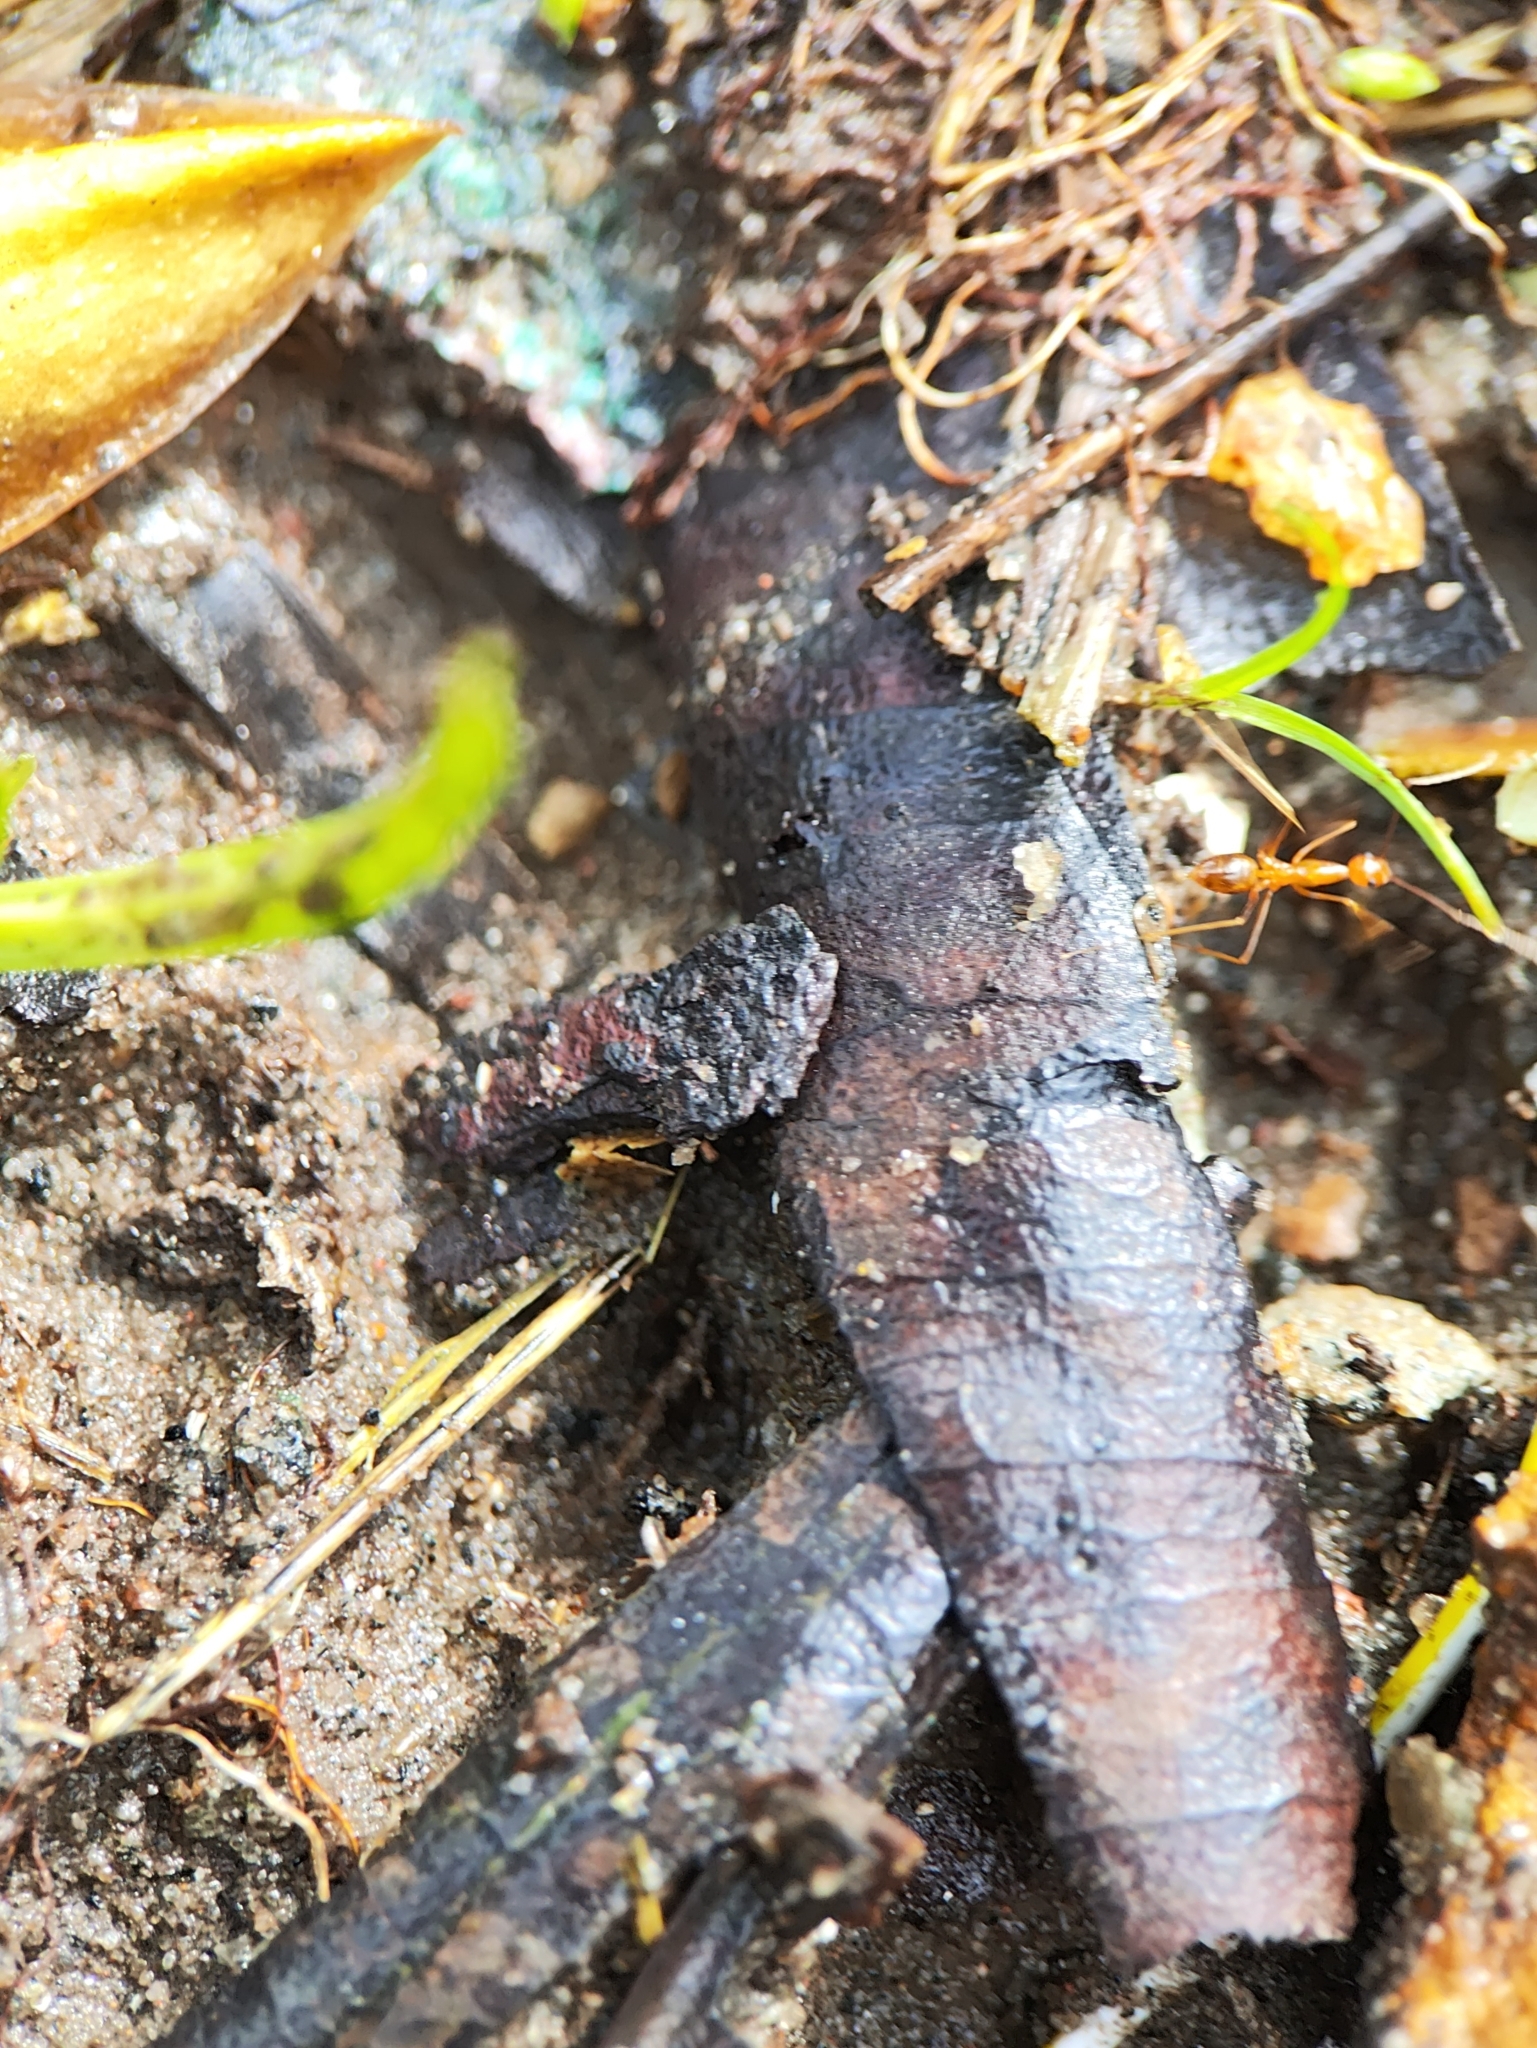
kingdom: Animalia
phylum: Arthropoda
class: Insecta
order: Hymenoptera
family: Formicidae
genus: Anoplolepis
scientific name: Anoplolepis gracilipes
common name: Ant
